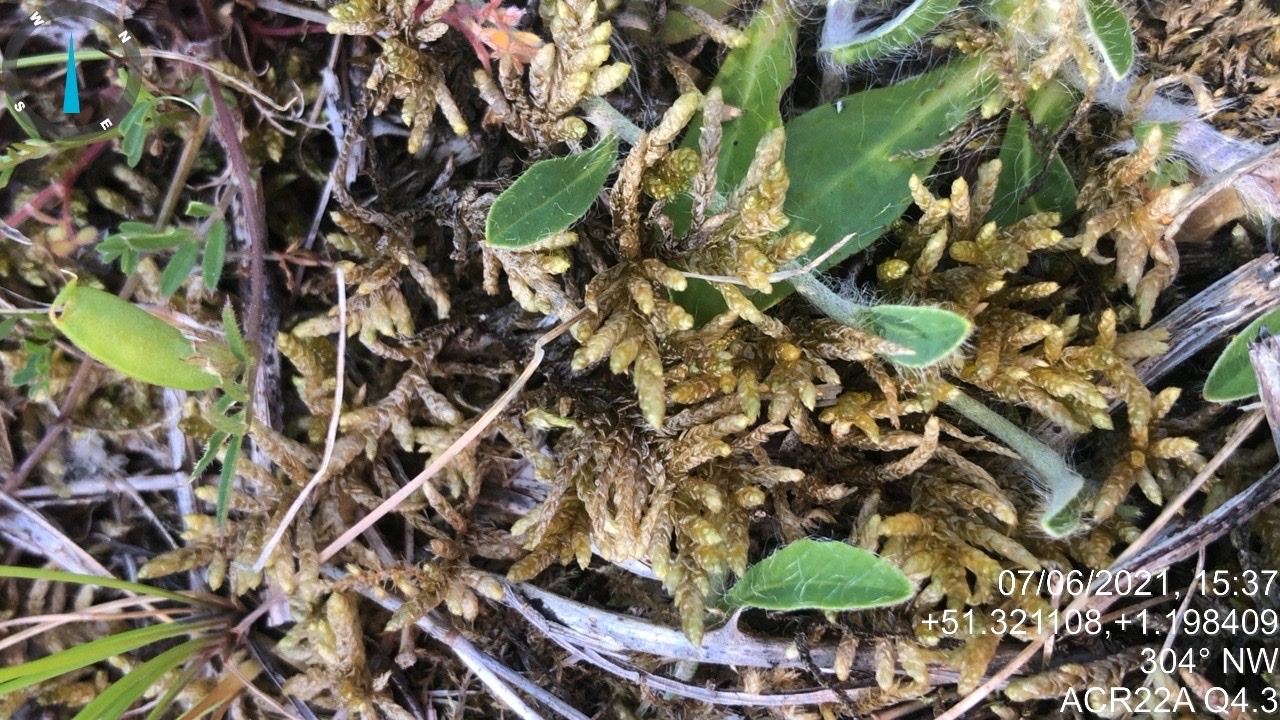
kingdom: Plantae
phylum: Bryophyta
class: Bryopsida
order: Hypnales
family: Brachytheciaceae
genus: Pseudoscleropodium
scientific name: Pseudoscleropodium purum
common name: Neat feather-moss
